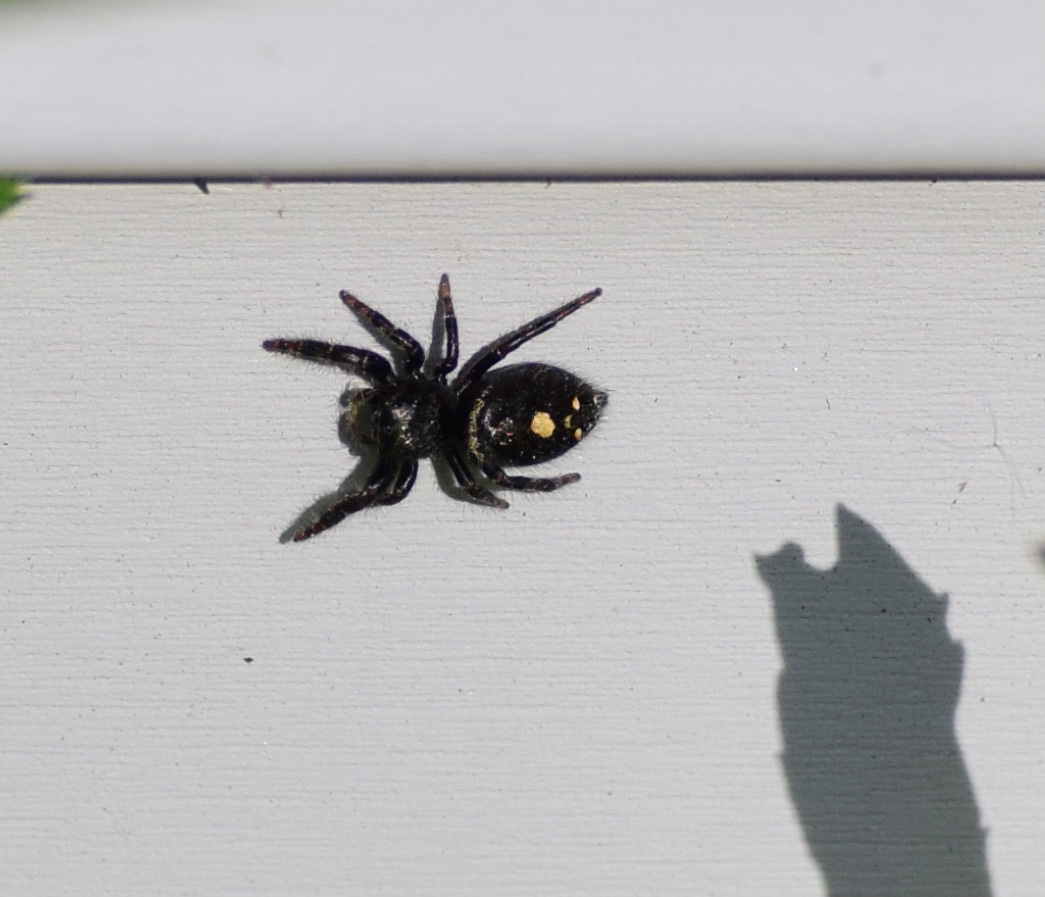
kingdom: Animalia
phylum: Arthropoda
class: Arachnida
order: Araneae
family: Salticidae
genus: Phidippus
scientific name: Phidippus audax
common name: Bold jumper
